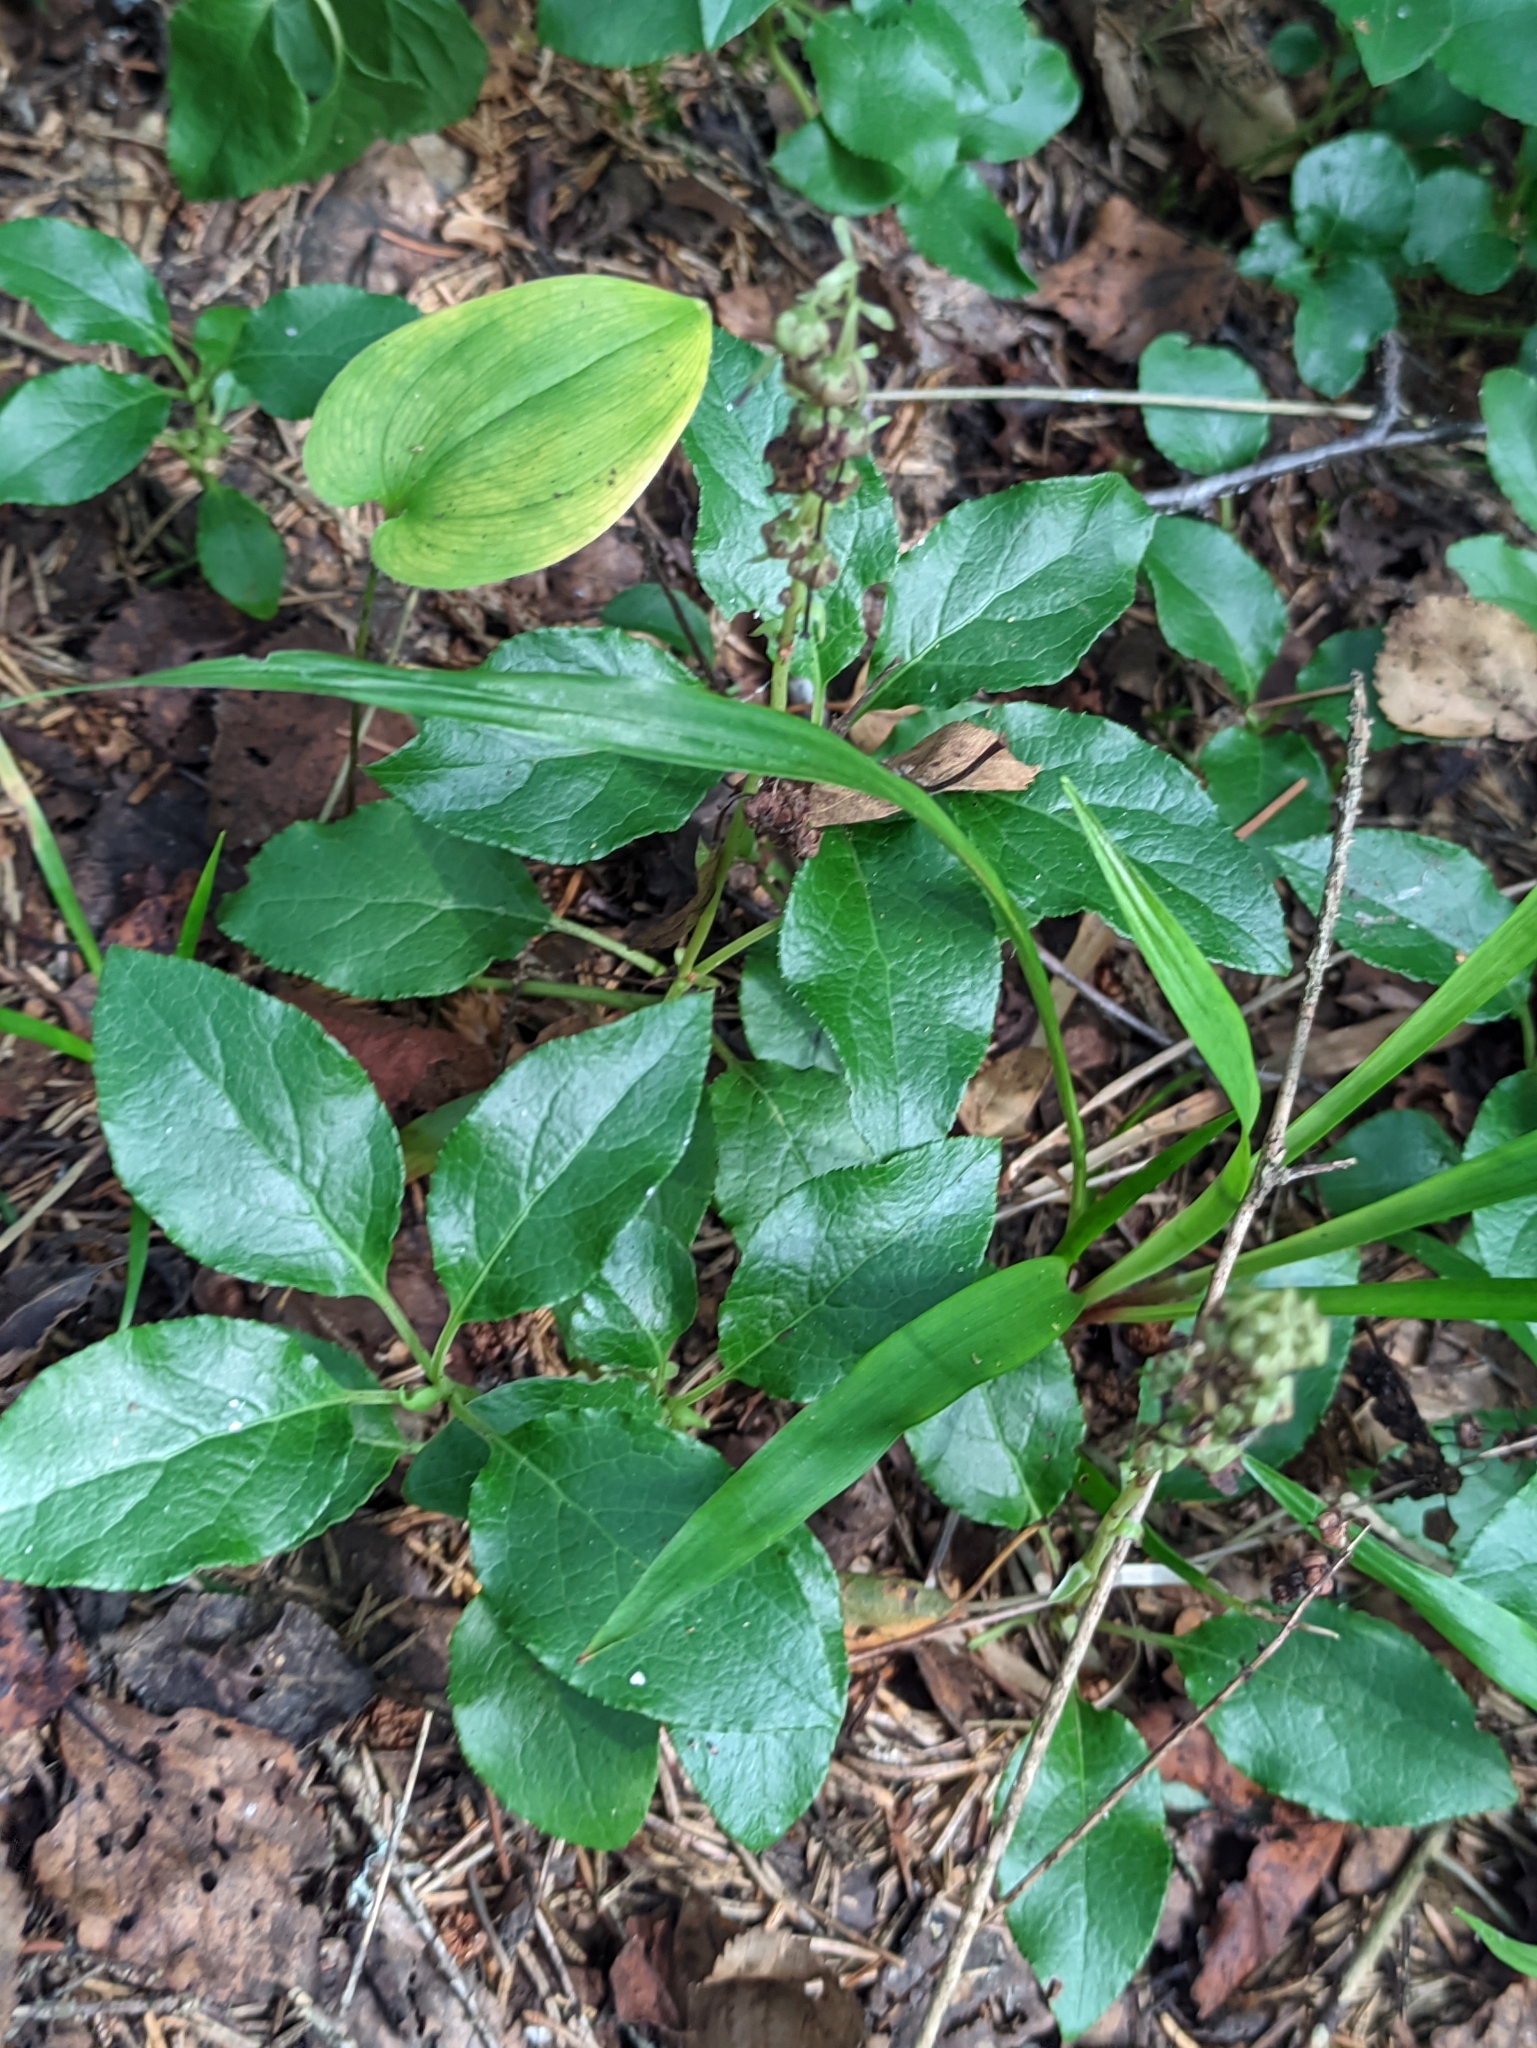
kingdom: Plantae
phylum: Tracheophyta
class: Magnoliopsida
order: Ericales
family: Ericaceae
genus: Orthilia
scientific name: Orthilia secunda
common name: One-sided orthilia
